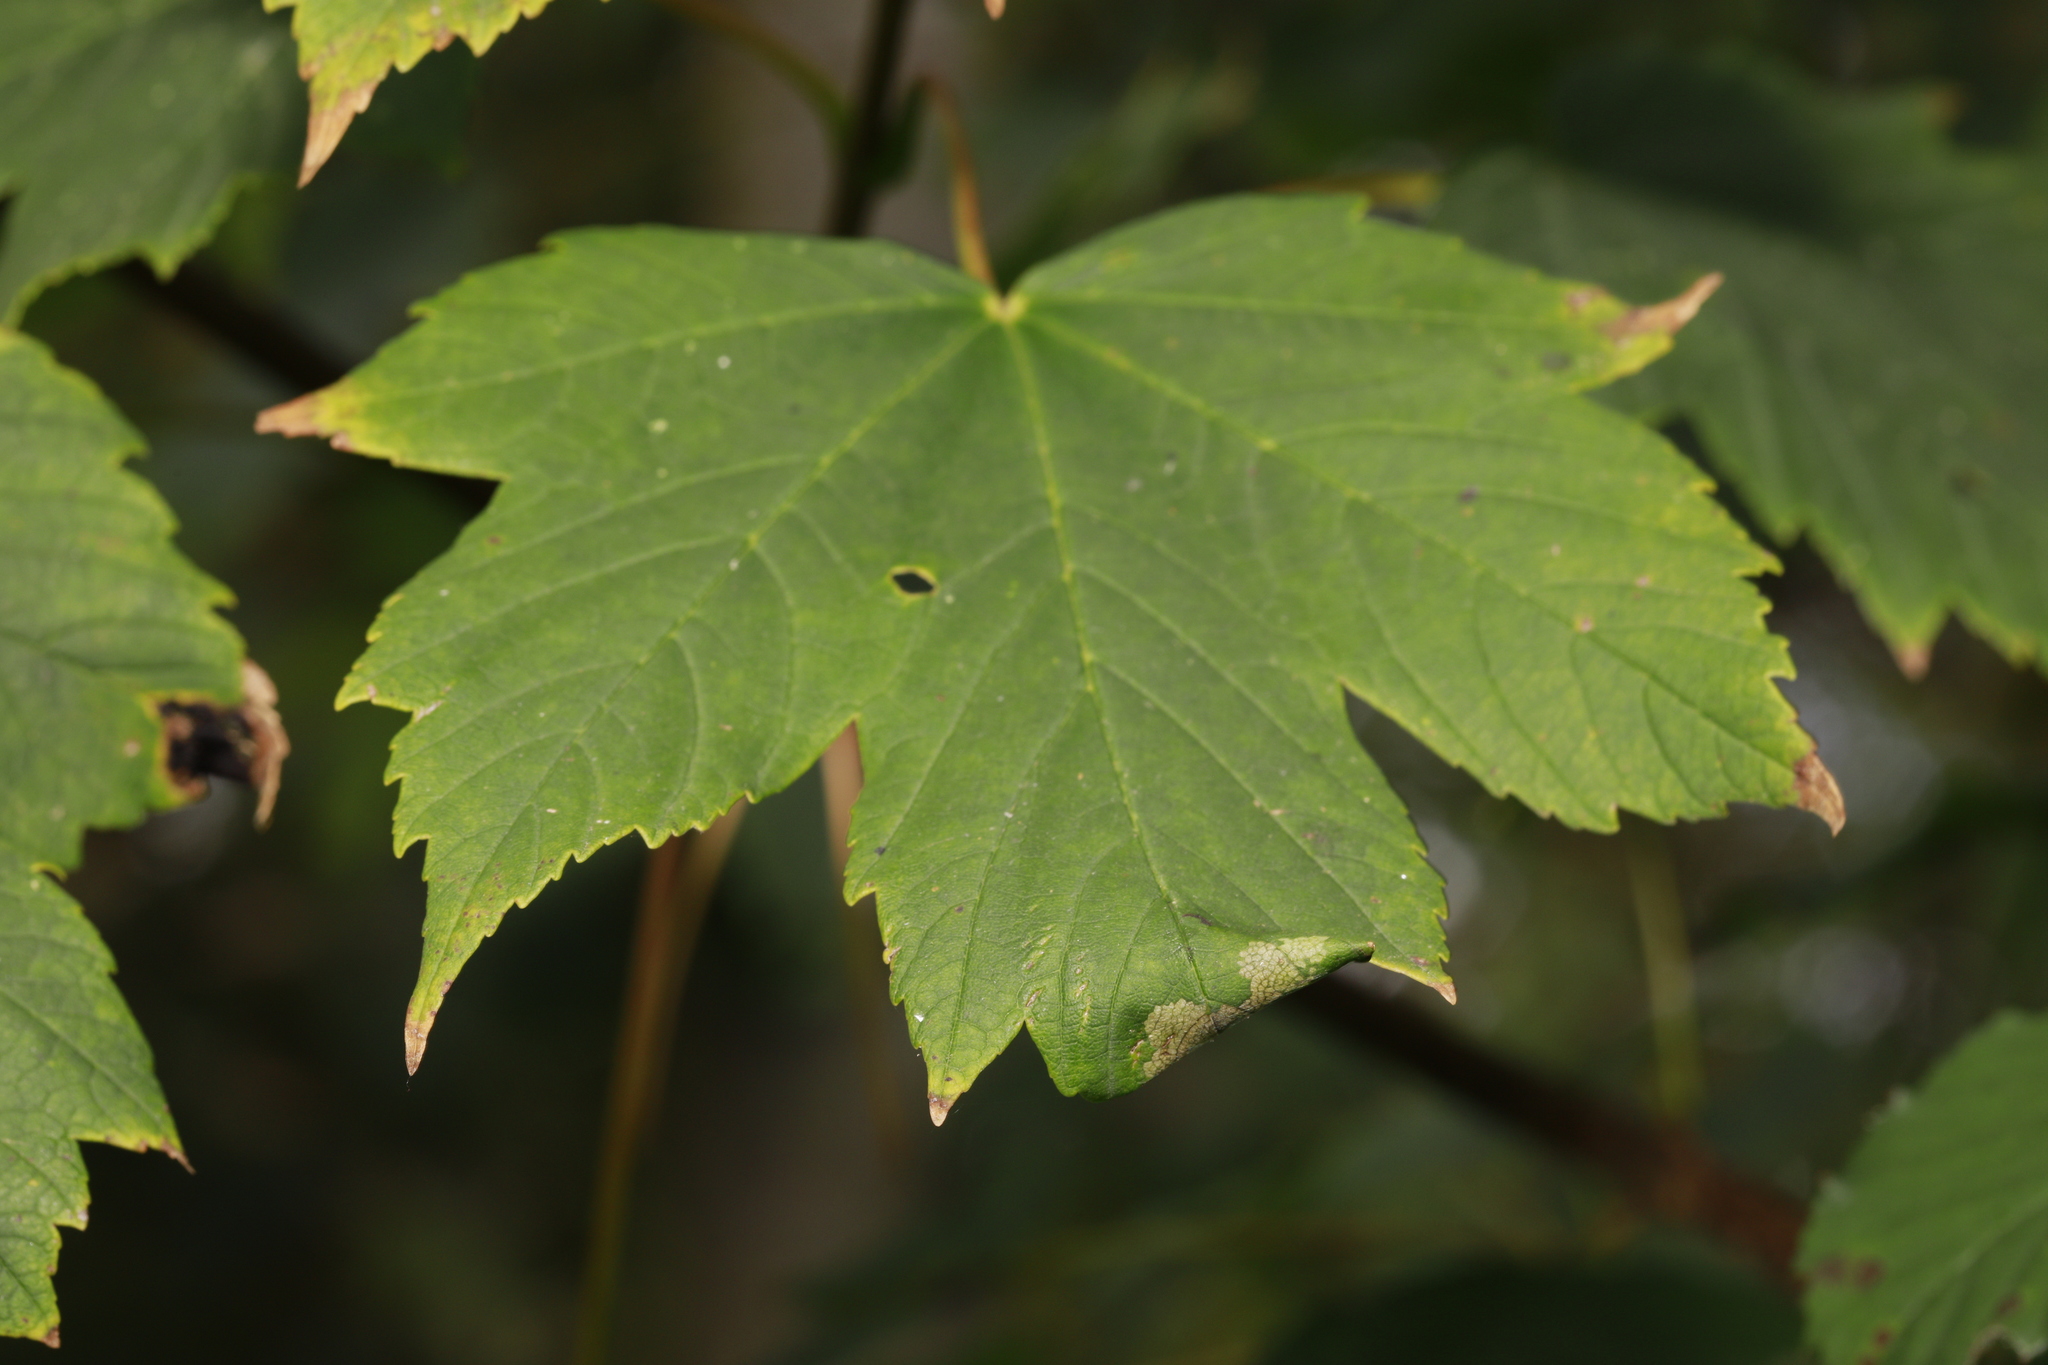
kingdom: Plantae
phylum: Tracheophyta
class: Magnoliopsida
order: Sapindales
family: Sapindaceae
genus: Acer
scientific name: Acer pseudoplatanus
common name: Sycamore
